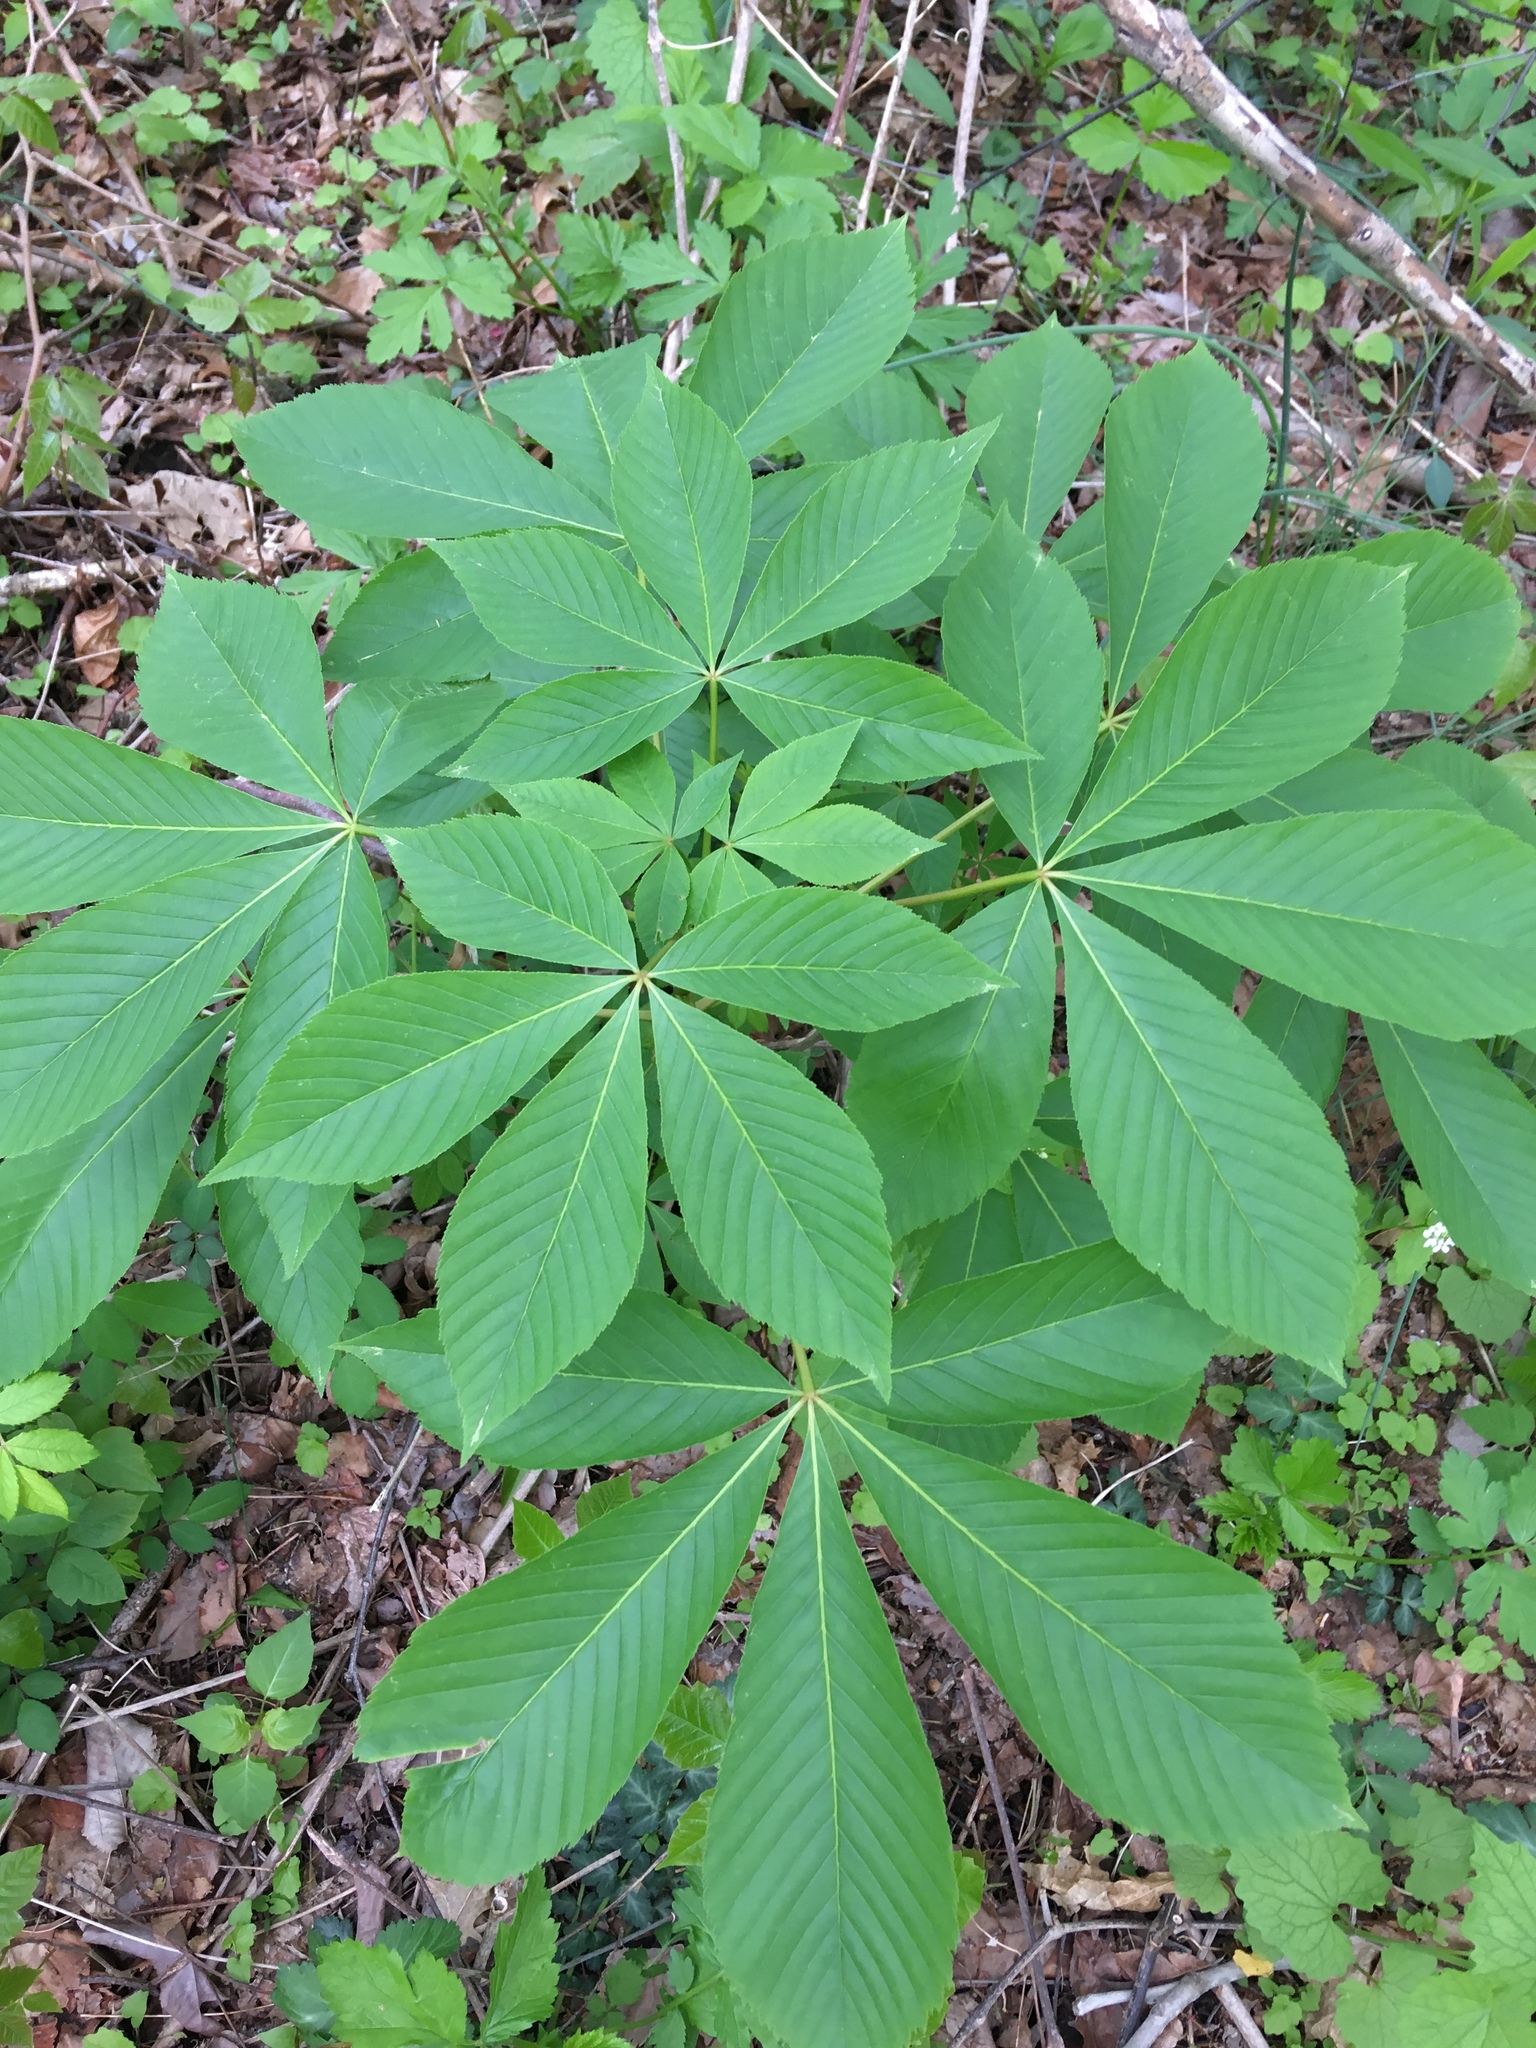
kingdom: Plantae
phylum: Tracheophyta
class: Magnoliopsida
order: Sapindales
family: Sapindaceae
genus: Aesculus
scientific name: Aesculus glabra
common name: Ohio buckeye
